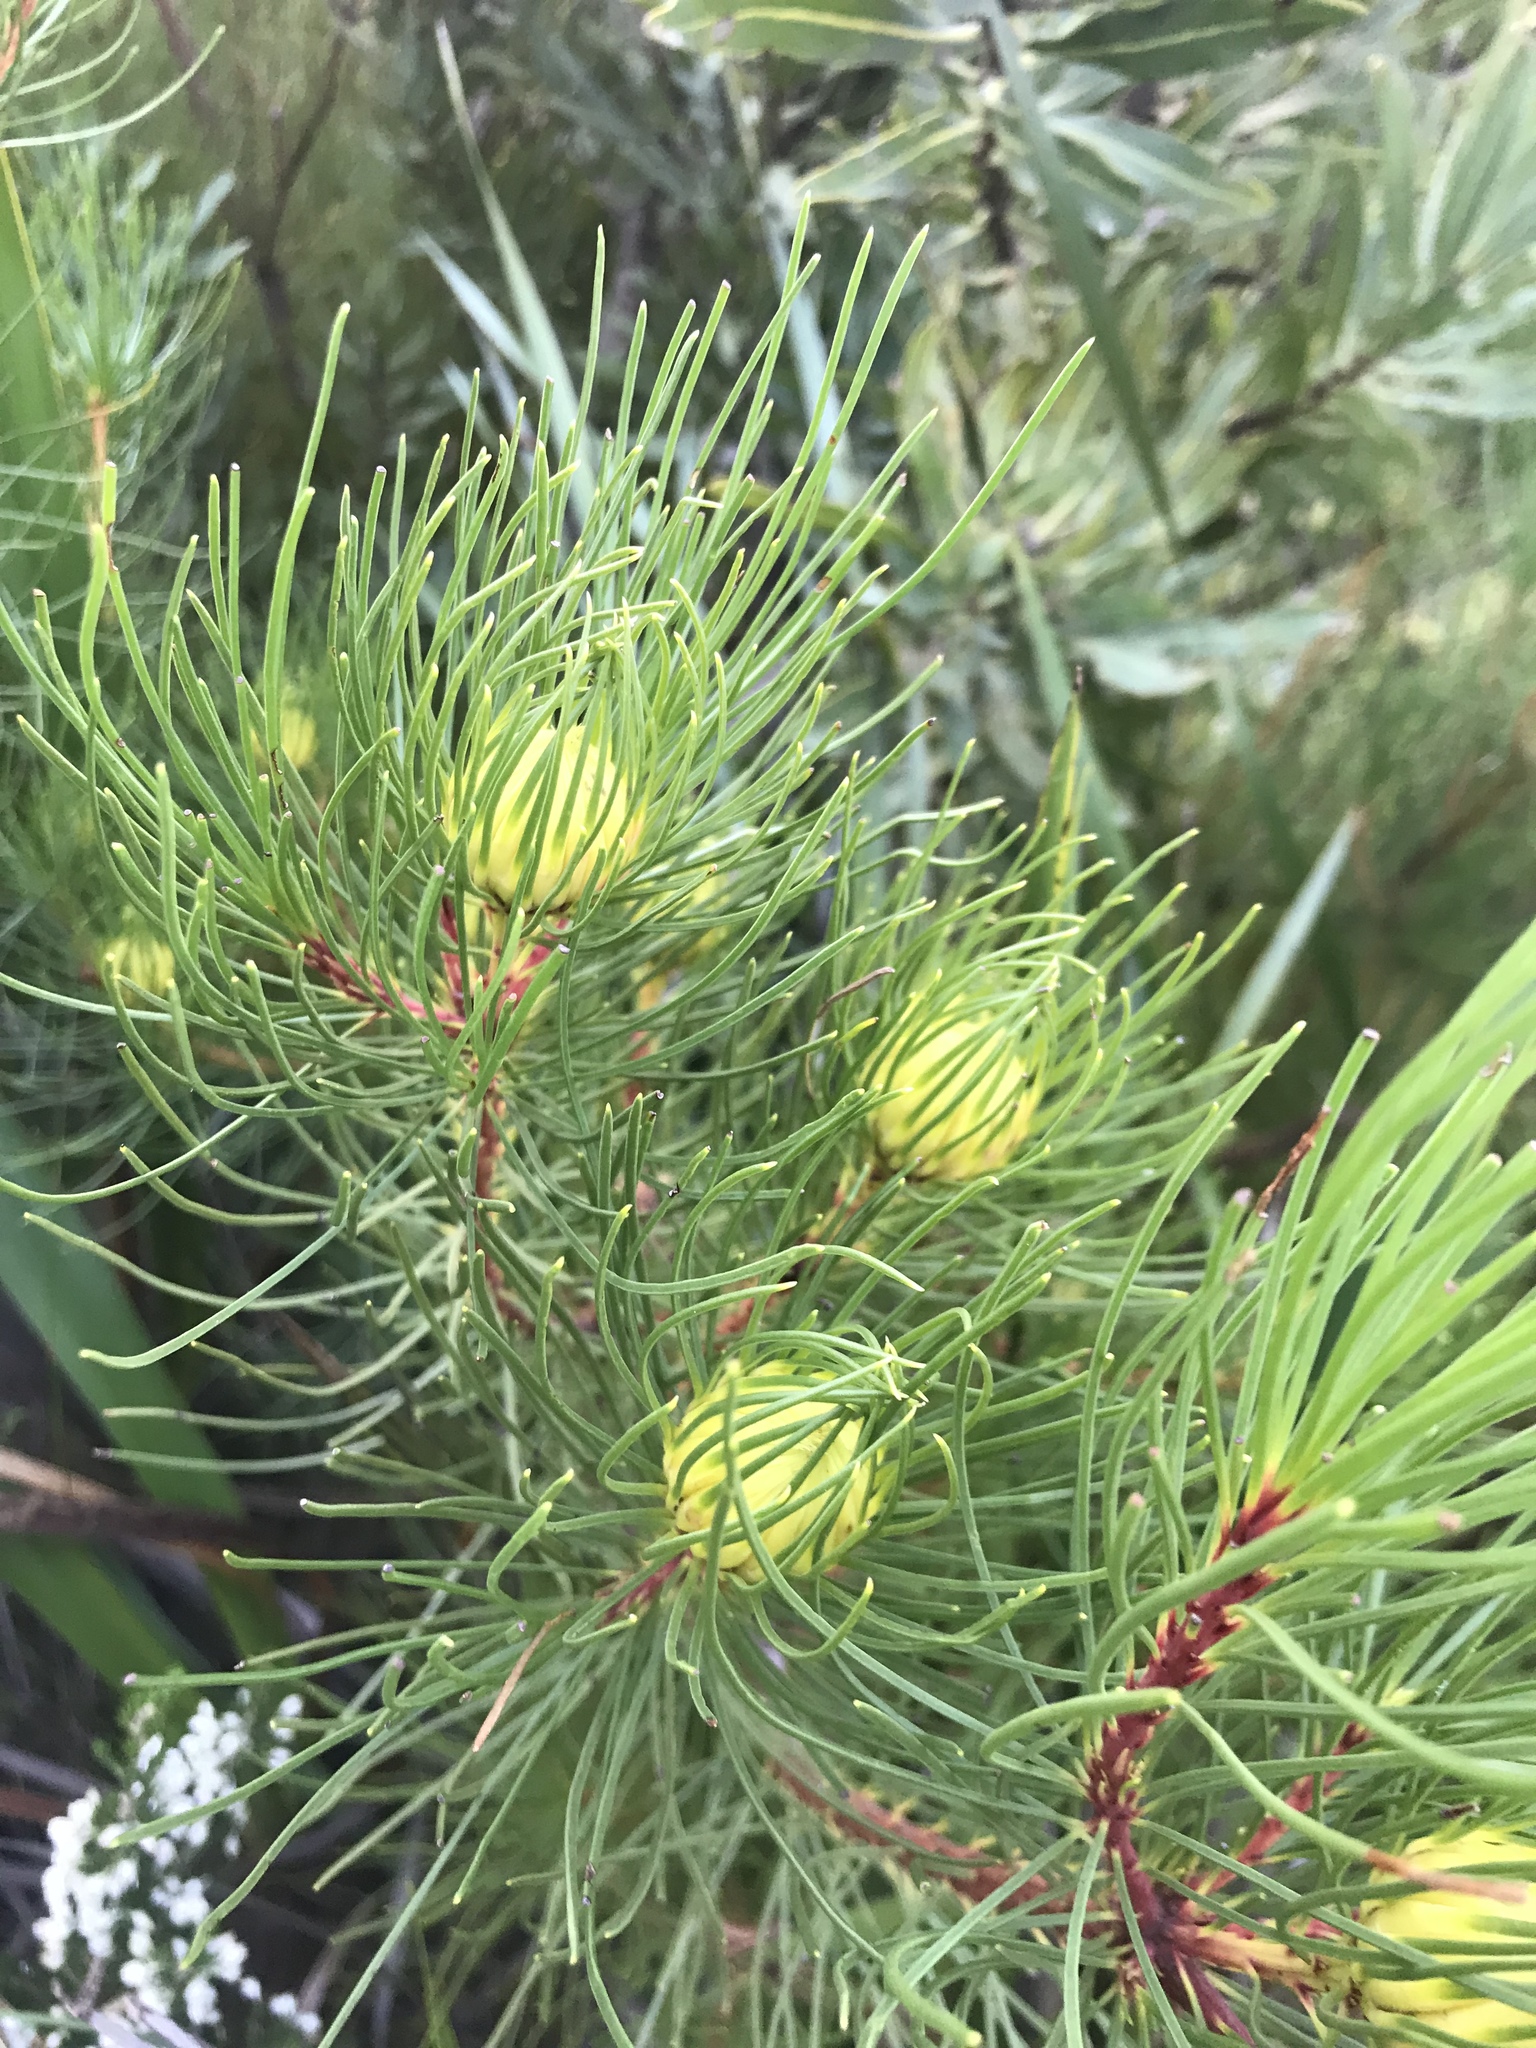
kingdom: Plantae
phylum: Tracheophyta
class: Magnoliopsida
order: Proteales
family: Proteaceae
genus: Aulax
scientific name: Aulax cancellata
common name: Channel-leaf featherbush
